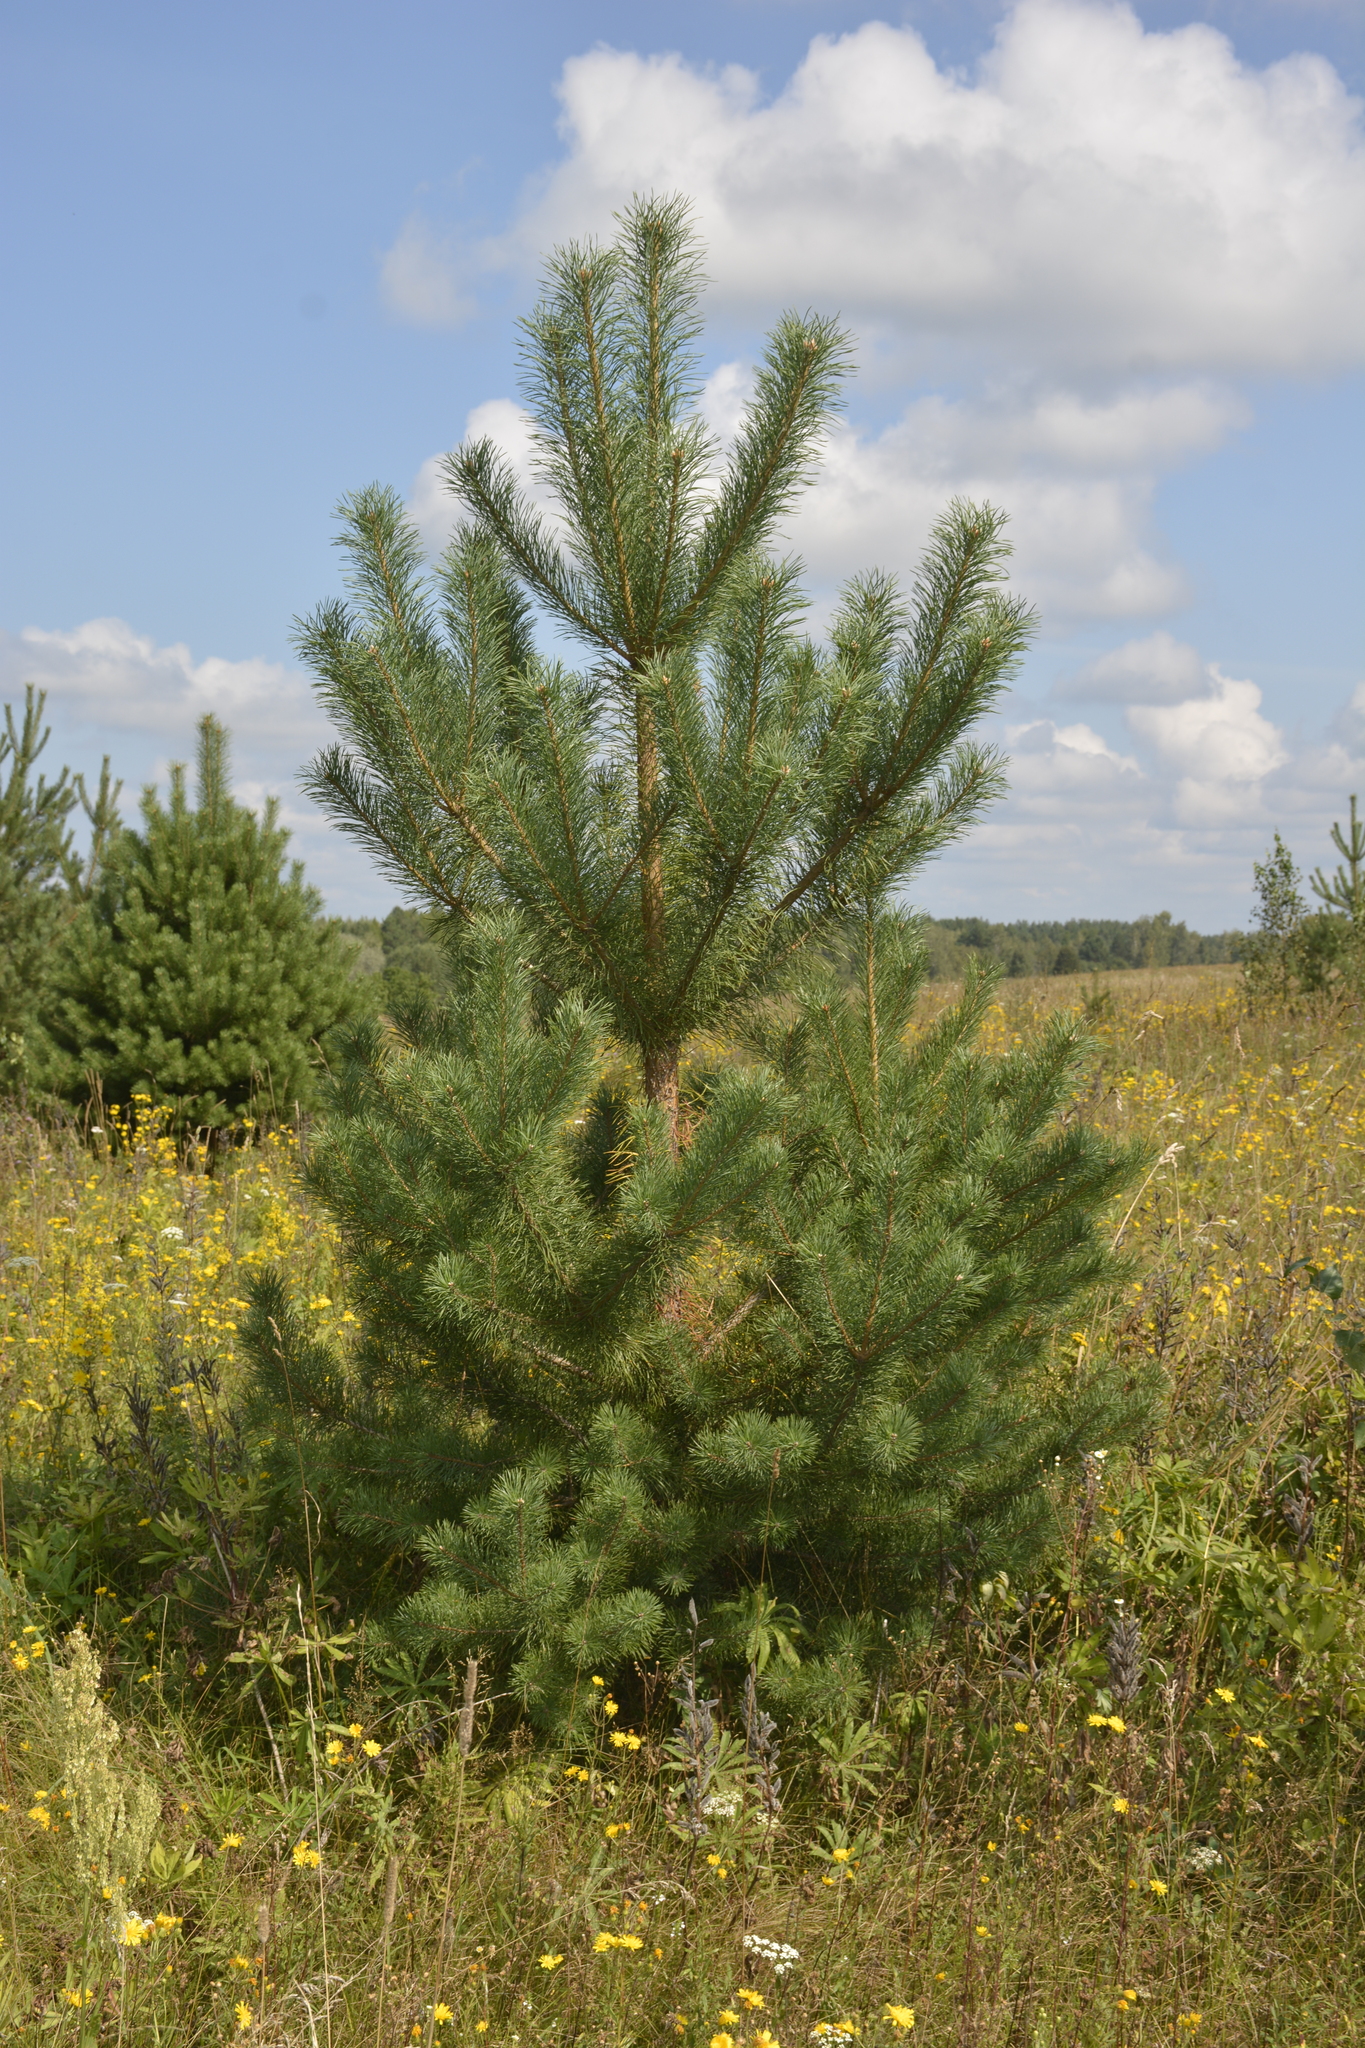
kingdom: Plantae
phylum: Tracheophyta
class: Pinopsida
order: Pinales
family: Pinaceae
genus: Pinus
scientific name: Pinus sylvestris
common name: Scots pine
